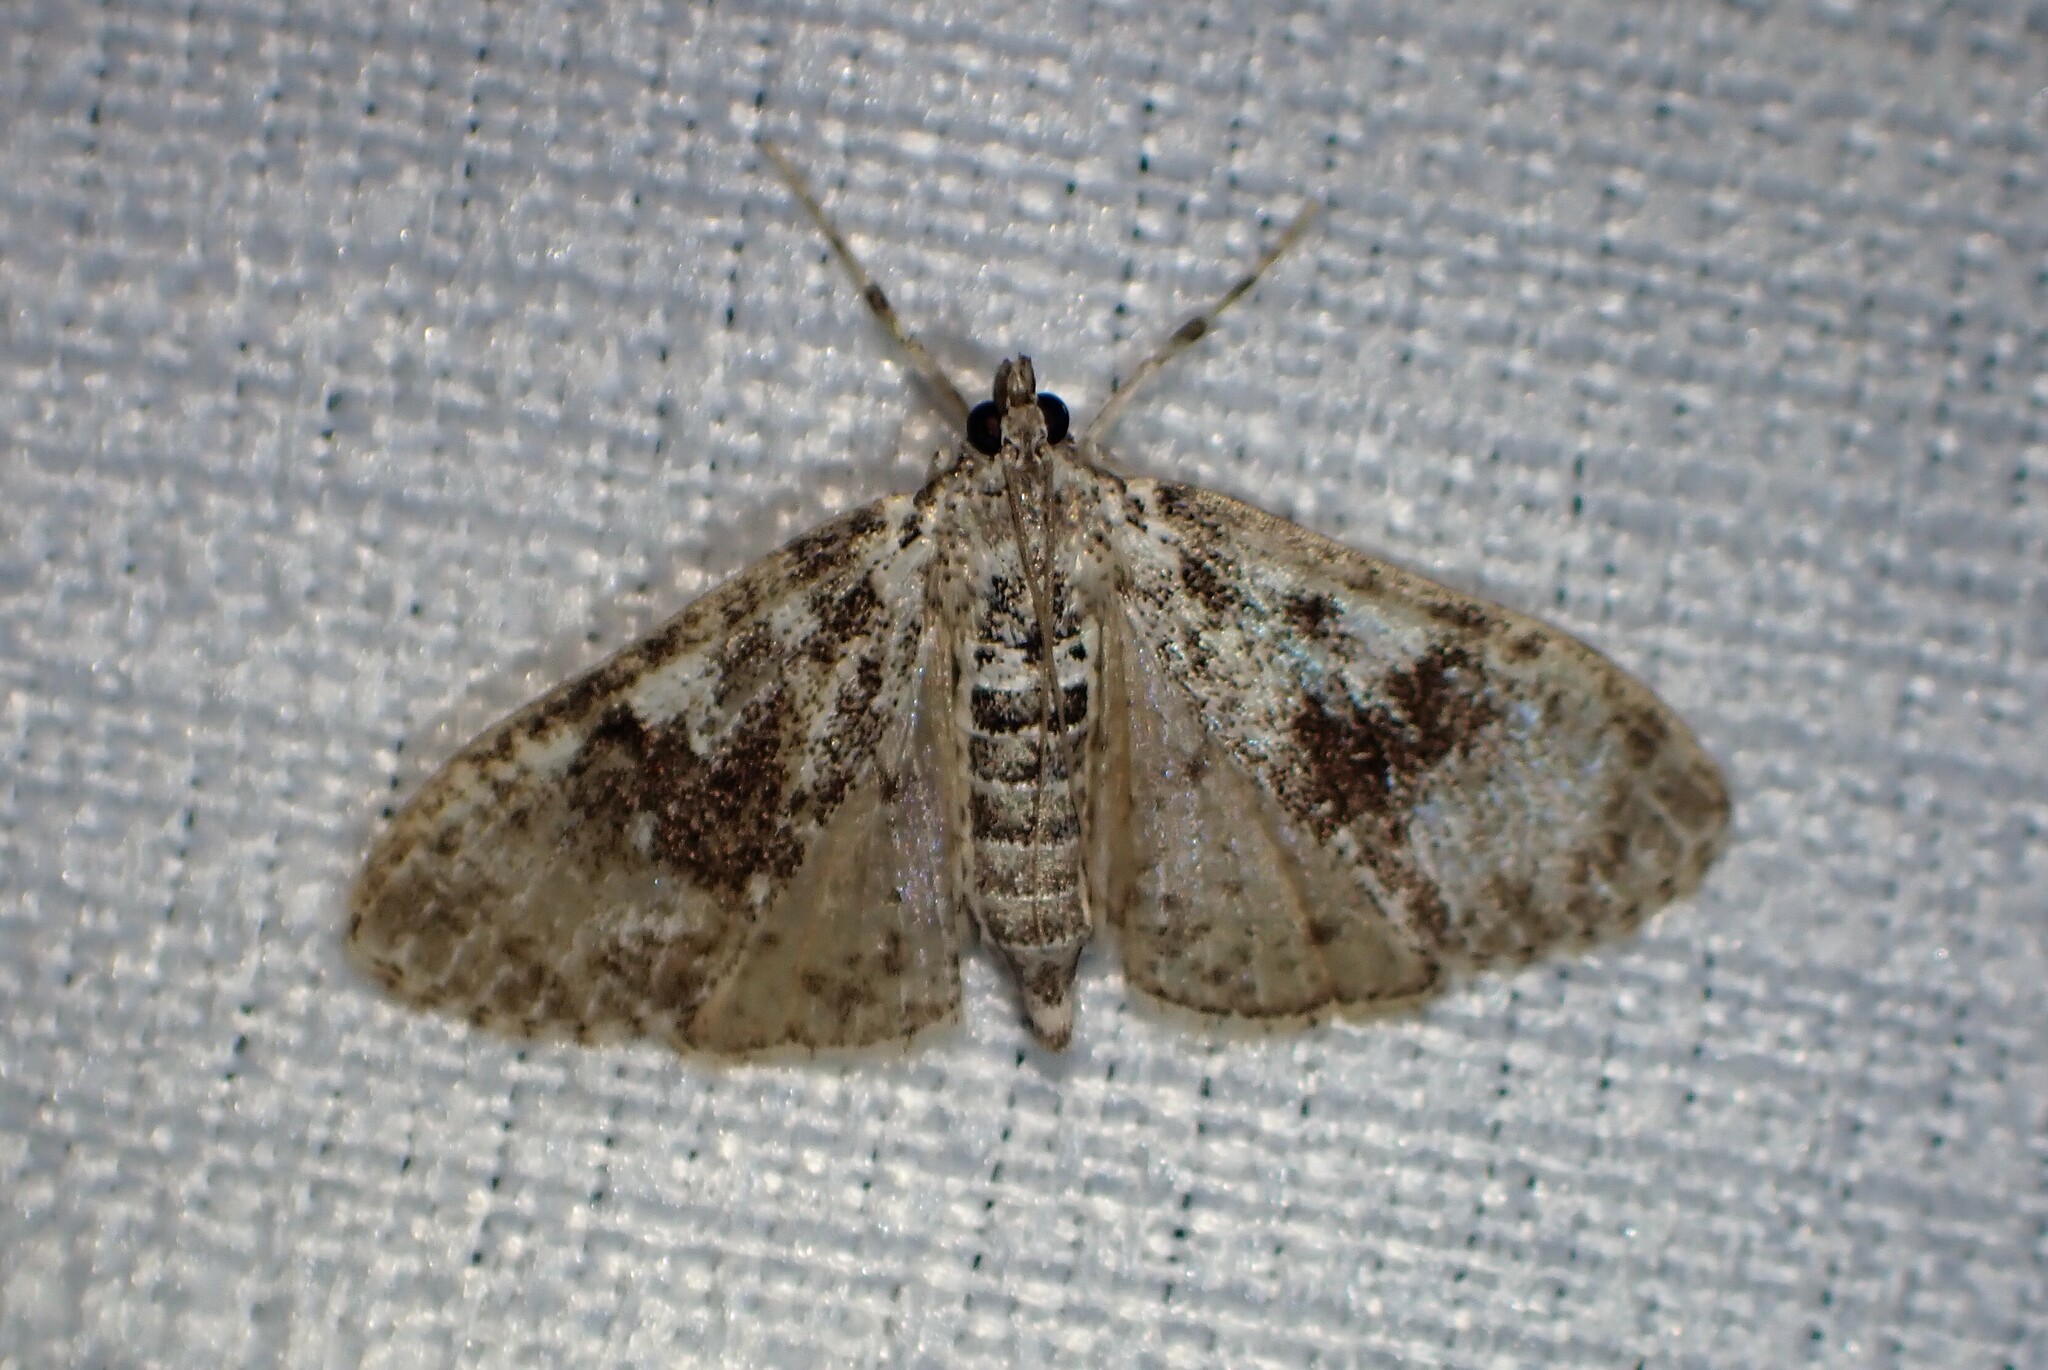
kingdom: Animalia
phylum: Arthropoda
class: Insecta
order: Lepidoptera
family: Crambidae
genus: Palpita
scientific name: Palpita magniferalis
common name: Splendid palpita moth
